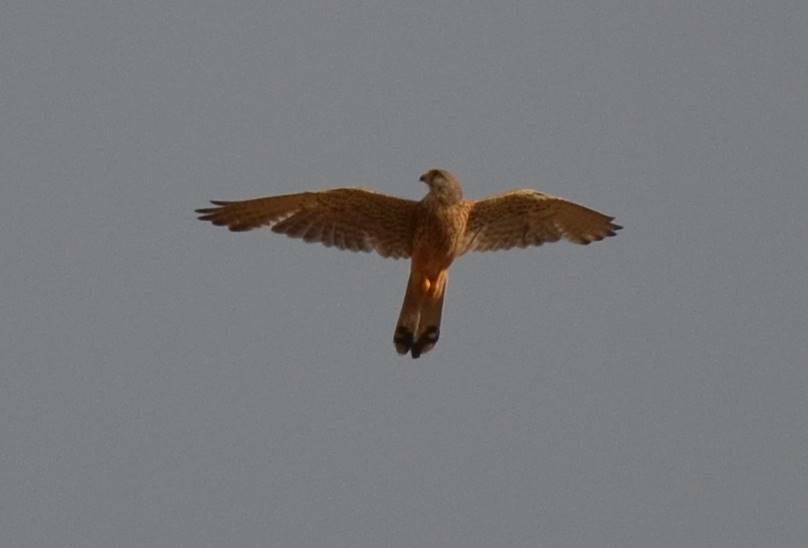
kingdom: Animalia
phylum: Chordata
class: Aves
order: Falconiformes
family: Falconidae
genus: Falco
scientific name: Falco tinnunculus
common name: Common kestrel
